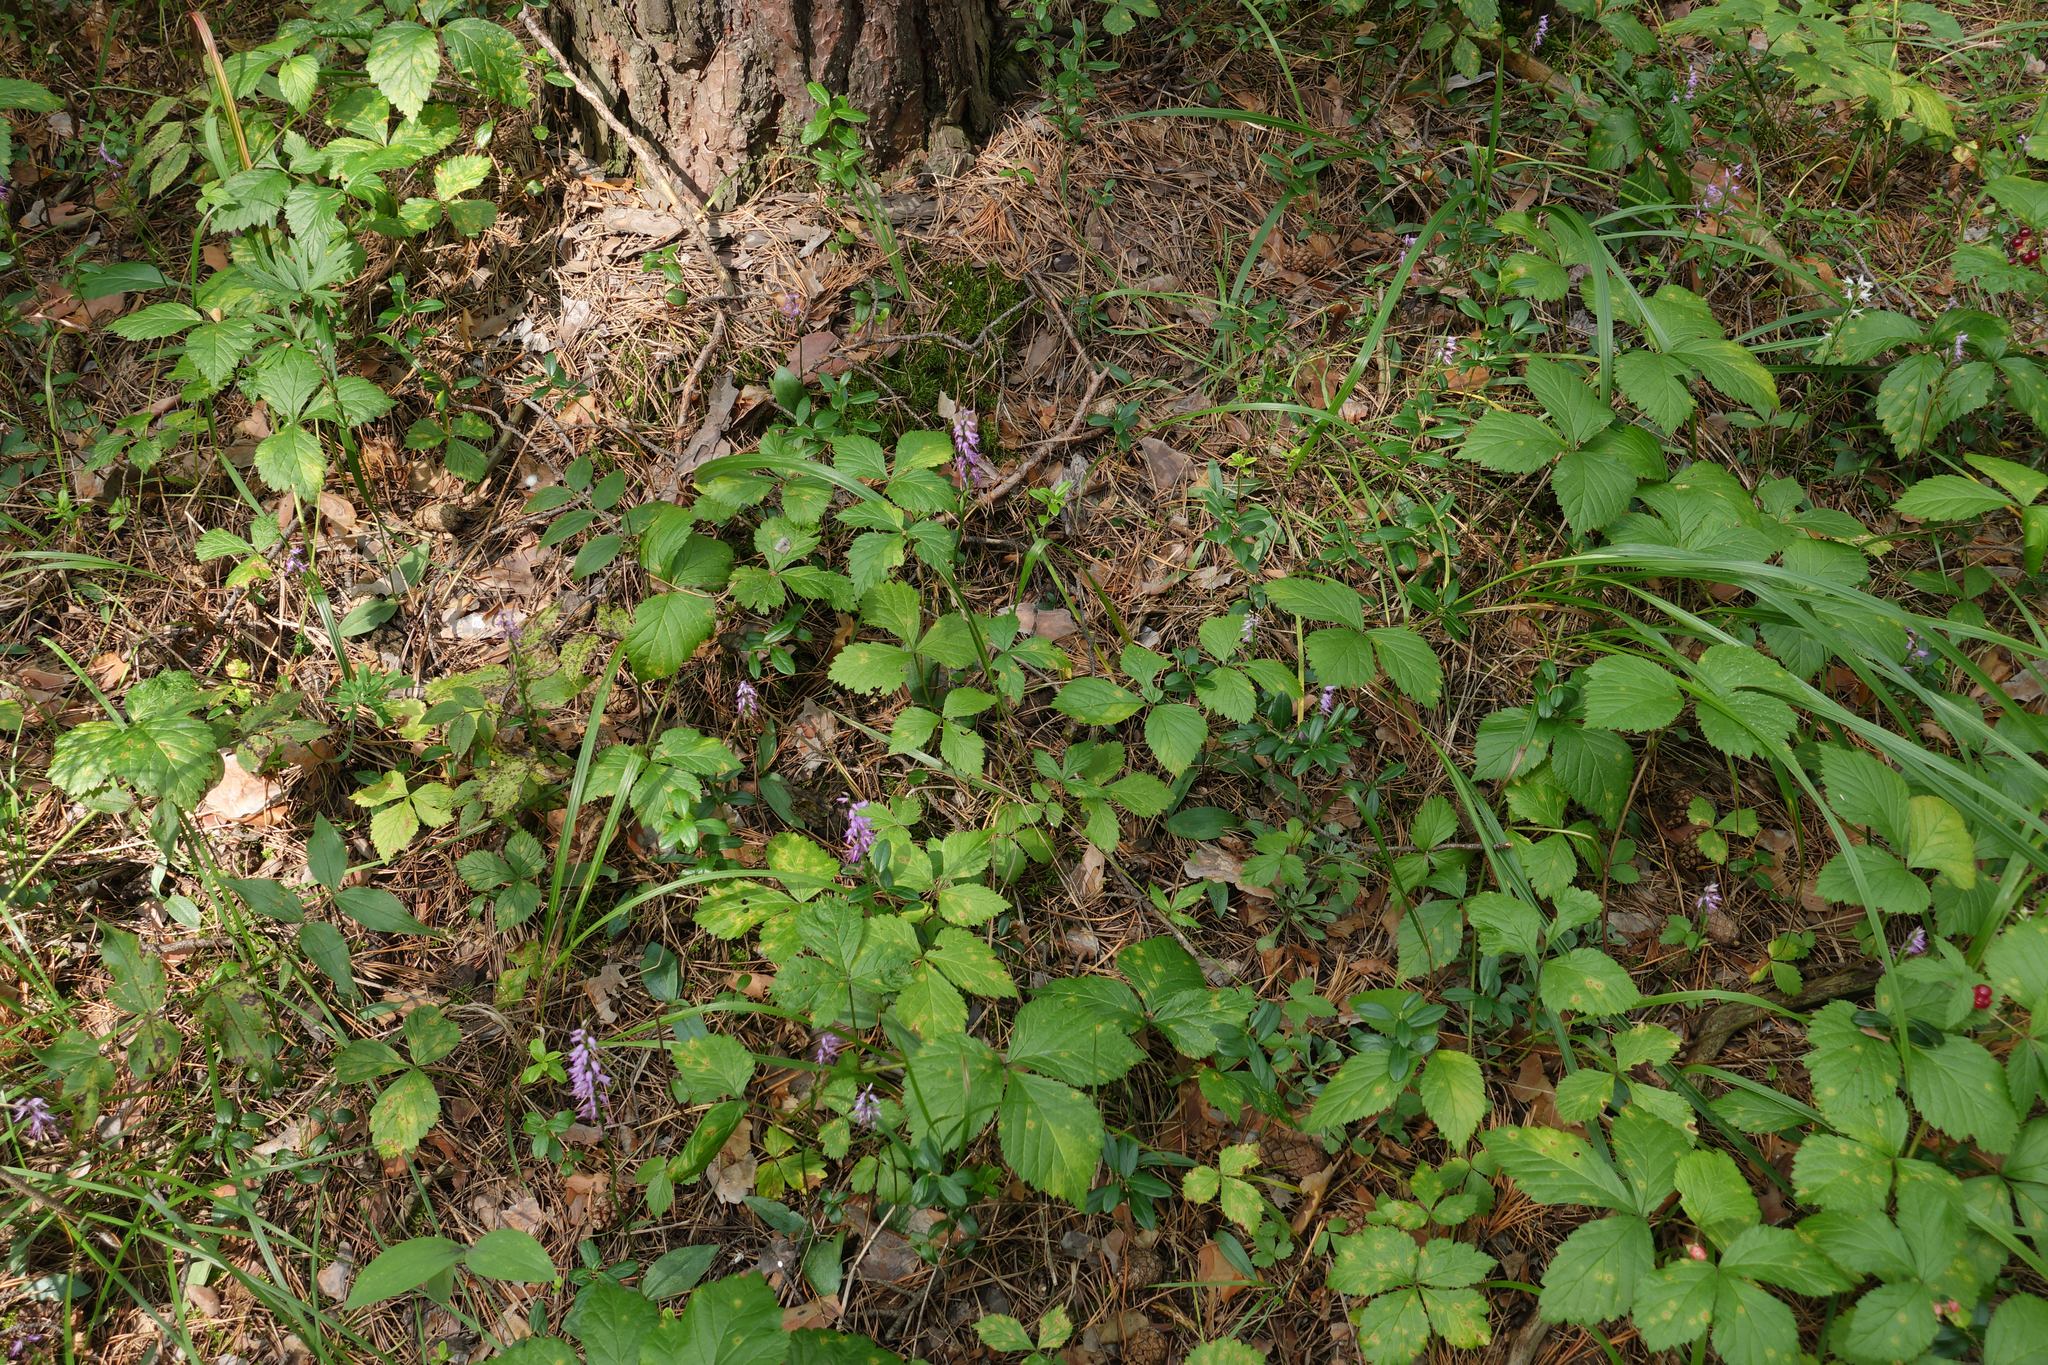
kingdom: Plantae
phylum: Tracheophyta
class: Liliopsida
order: Asparagales
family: Orchidaceae
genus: Hemipilia
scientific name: Hemipilia cucullata
